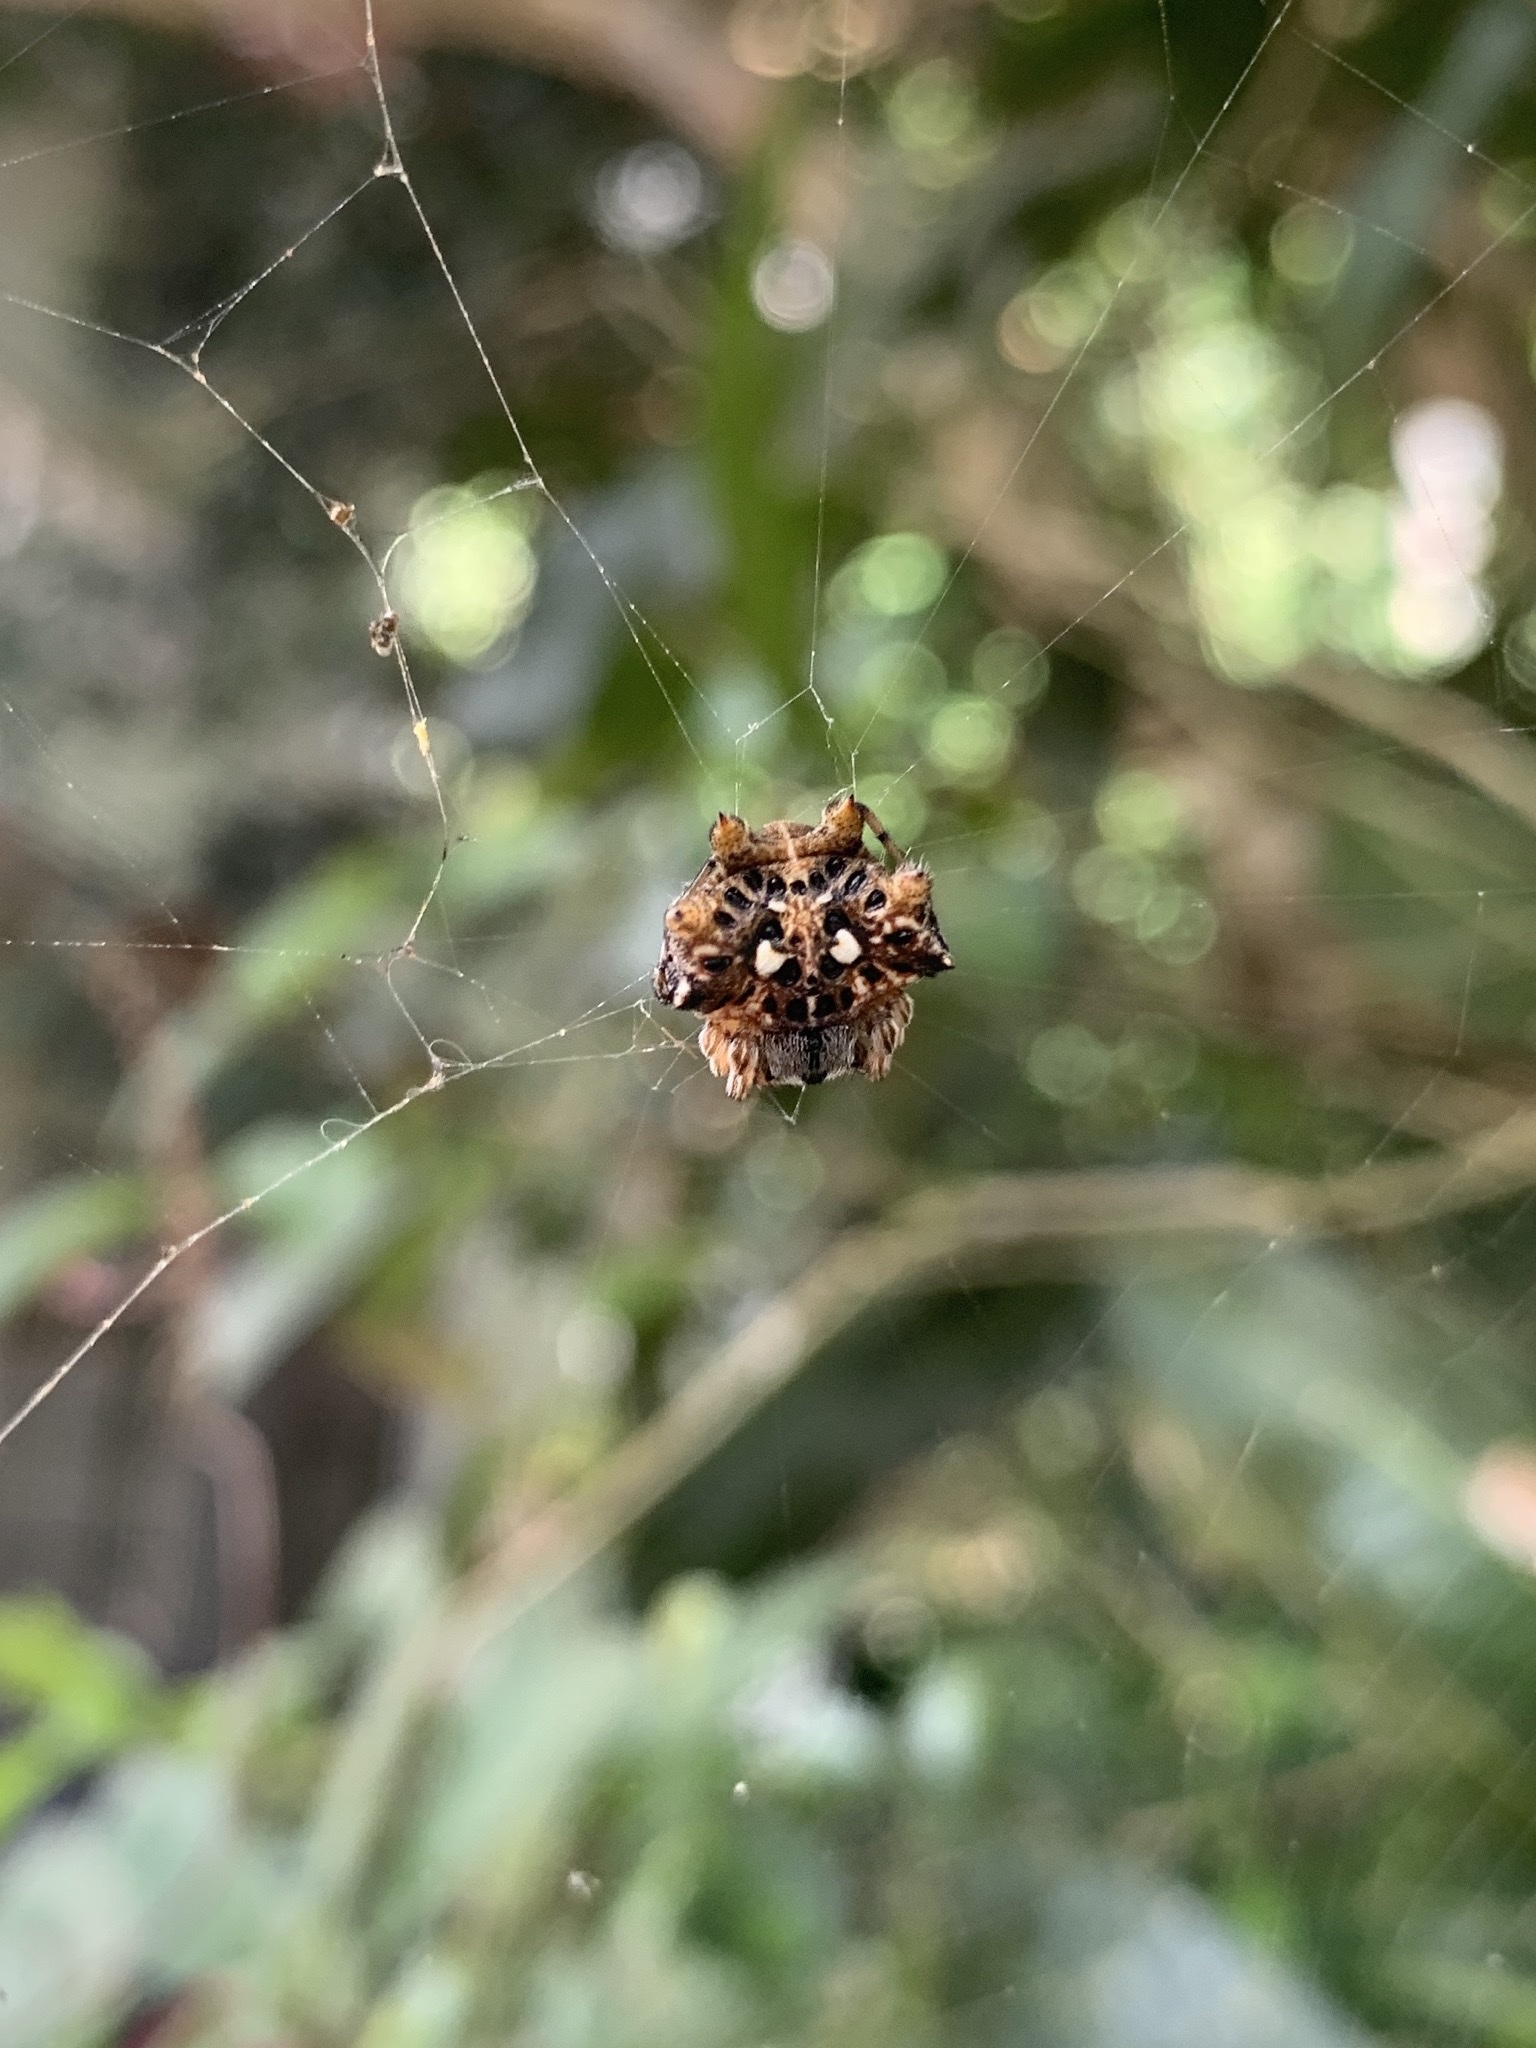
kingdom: Animalia
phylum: Arthropoda
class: Arachnida
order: Araneae
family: Araneidae
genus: Thelacantha
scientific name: Thelacantha brevispina
